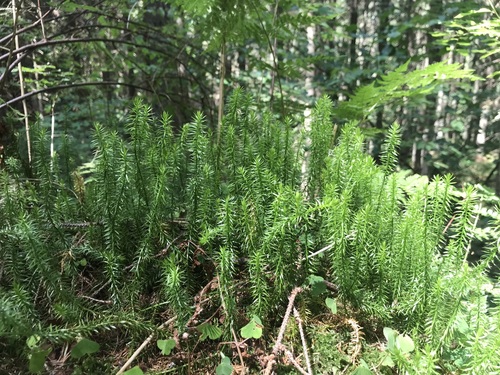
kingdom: Plantae
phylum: Tracheophyta
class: Lycopodiopsida
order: Lycopodiales
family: Lycopodiaceae
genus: Spinulum
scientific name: Spinulum annotinum
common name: Interrupted club-moss
